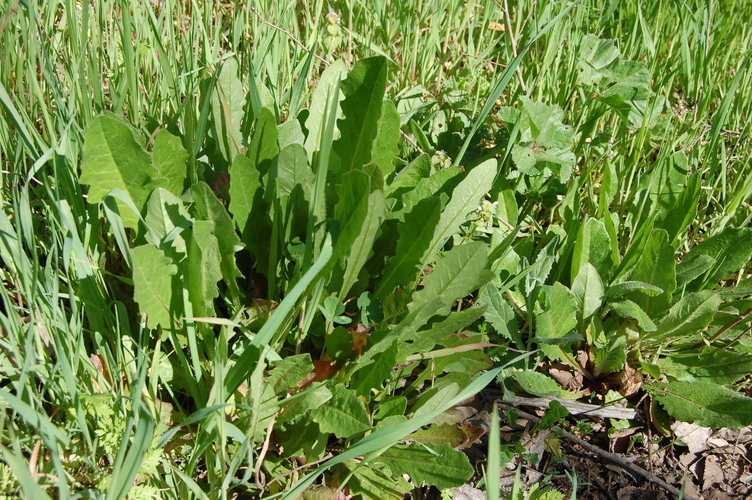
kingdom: Plantae
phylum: Tracheophyta
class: Magnoliopsida
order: Asterales
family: Asteraceae
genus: Cichorium
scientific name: Cichorium intybus
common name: Chicory
